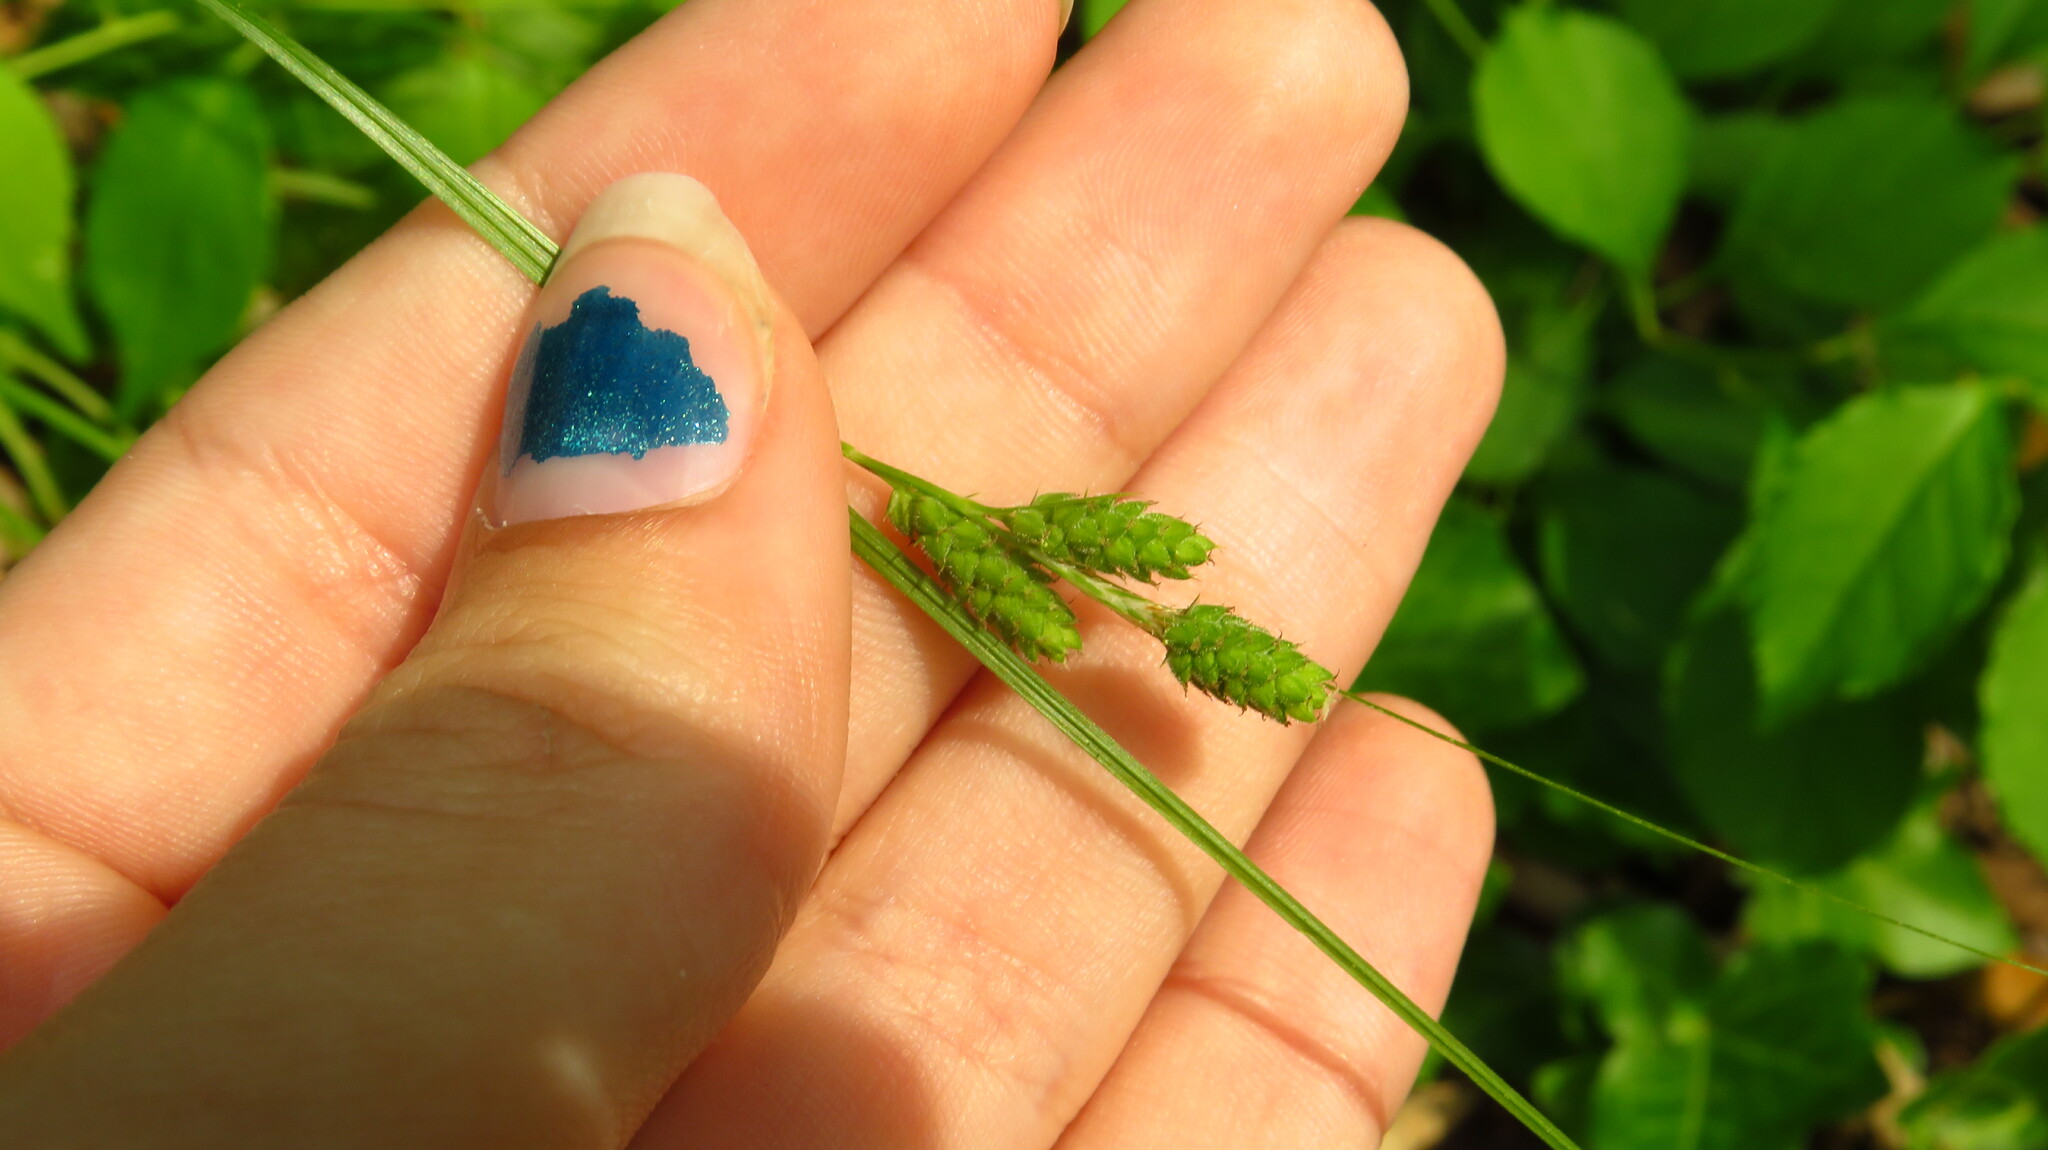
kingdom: Plantae
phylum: Tracheophyta
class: Liliopsida
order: Poales
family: Cyperaceae
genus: Carex
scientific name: Carex swanii
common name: Downy green sedge
